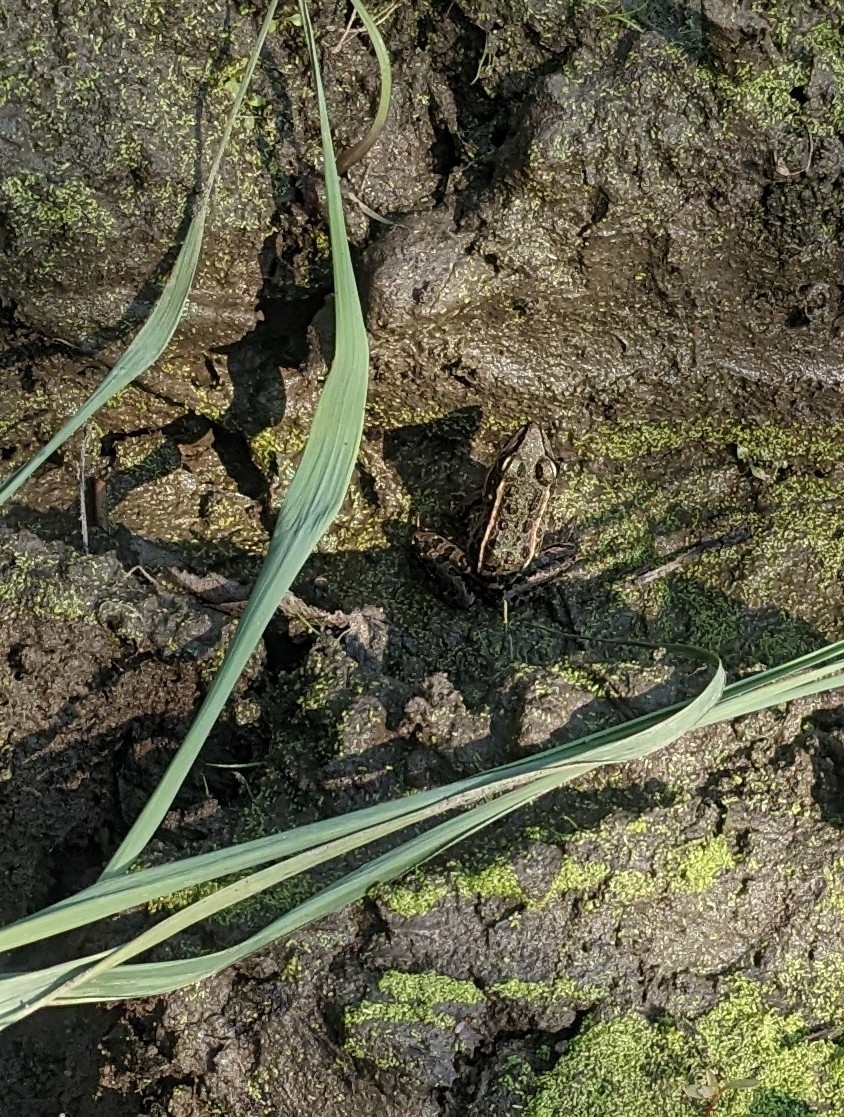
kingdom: Animalia
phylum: Chordata
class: Amphibia
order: Anura
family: Ranidae
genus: Lithobates
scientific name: Lithobates palustris
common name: Pickerel frog
